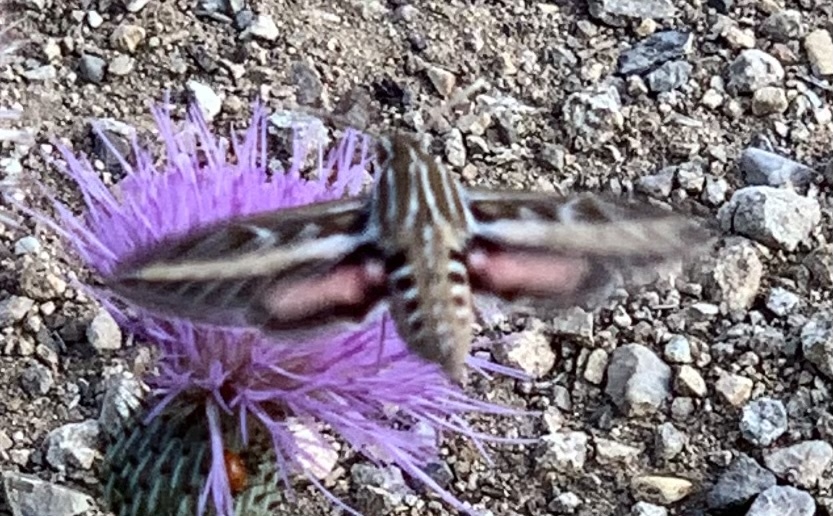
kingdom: Animalia
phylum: Arthropoda
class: Insecta
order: Lepidoptera
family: Sphingidae
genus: Hyles
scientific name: Hyles lineata
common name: White-lined sphinx
